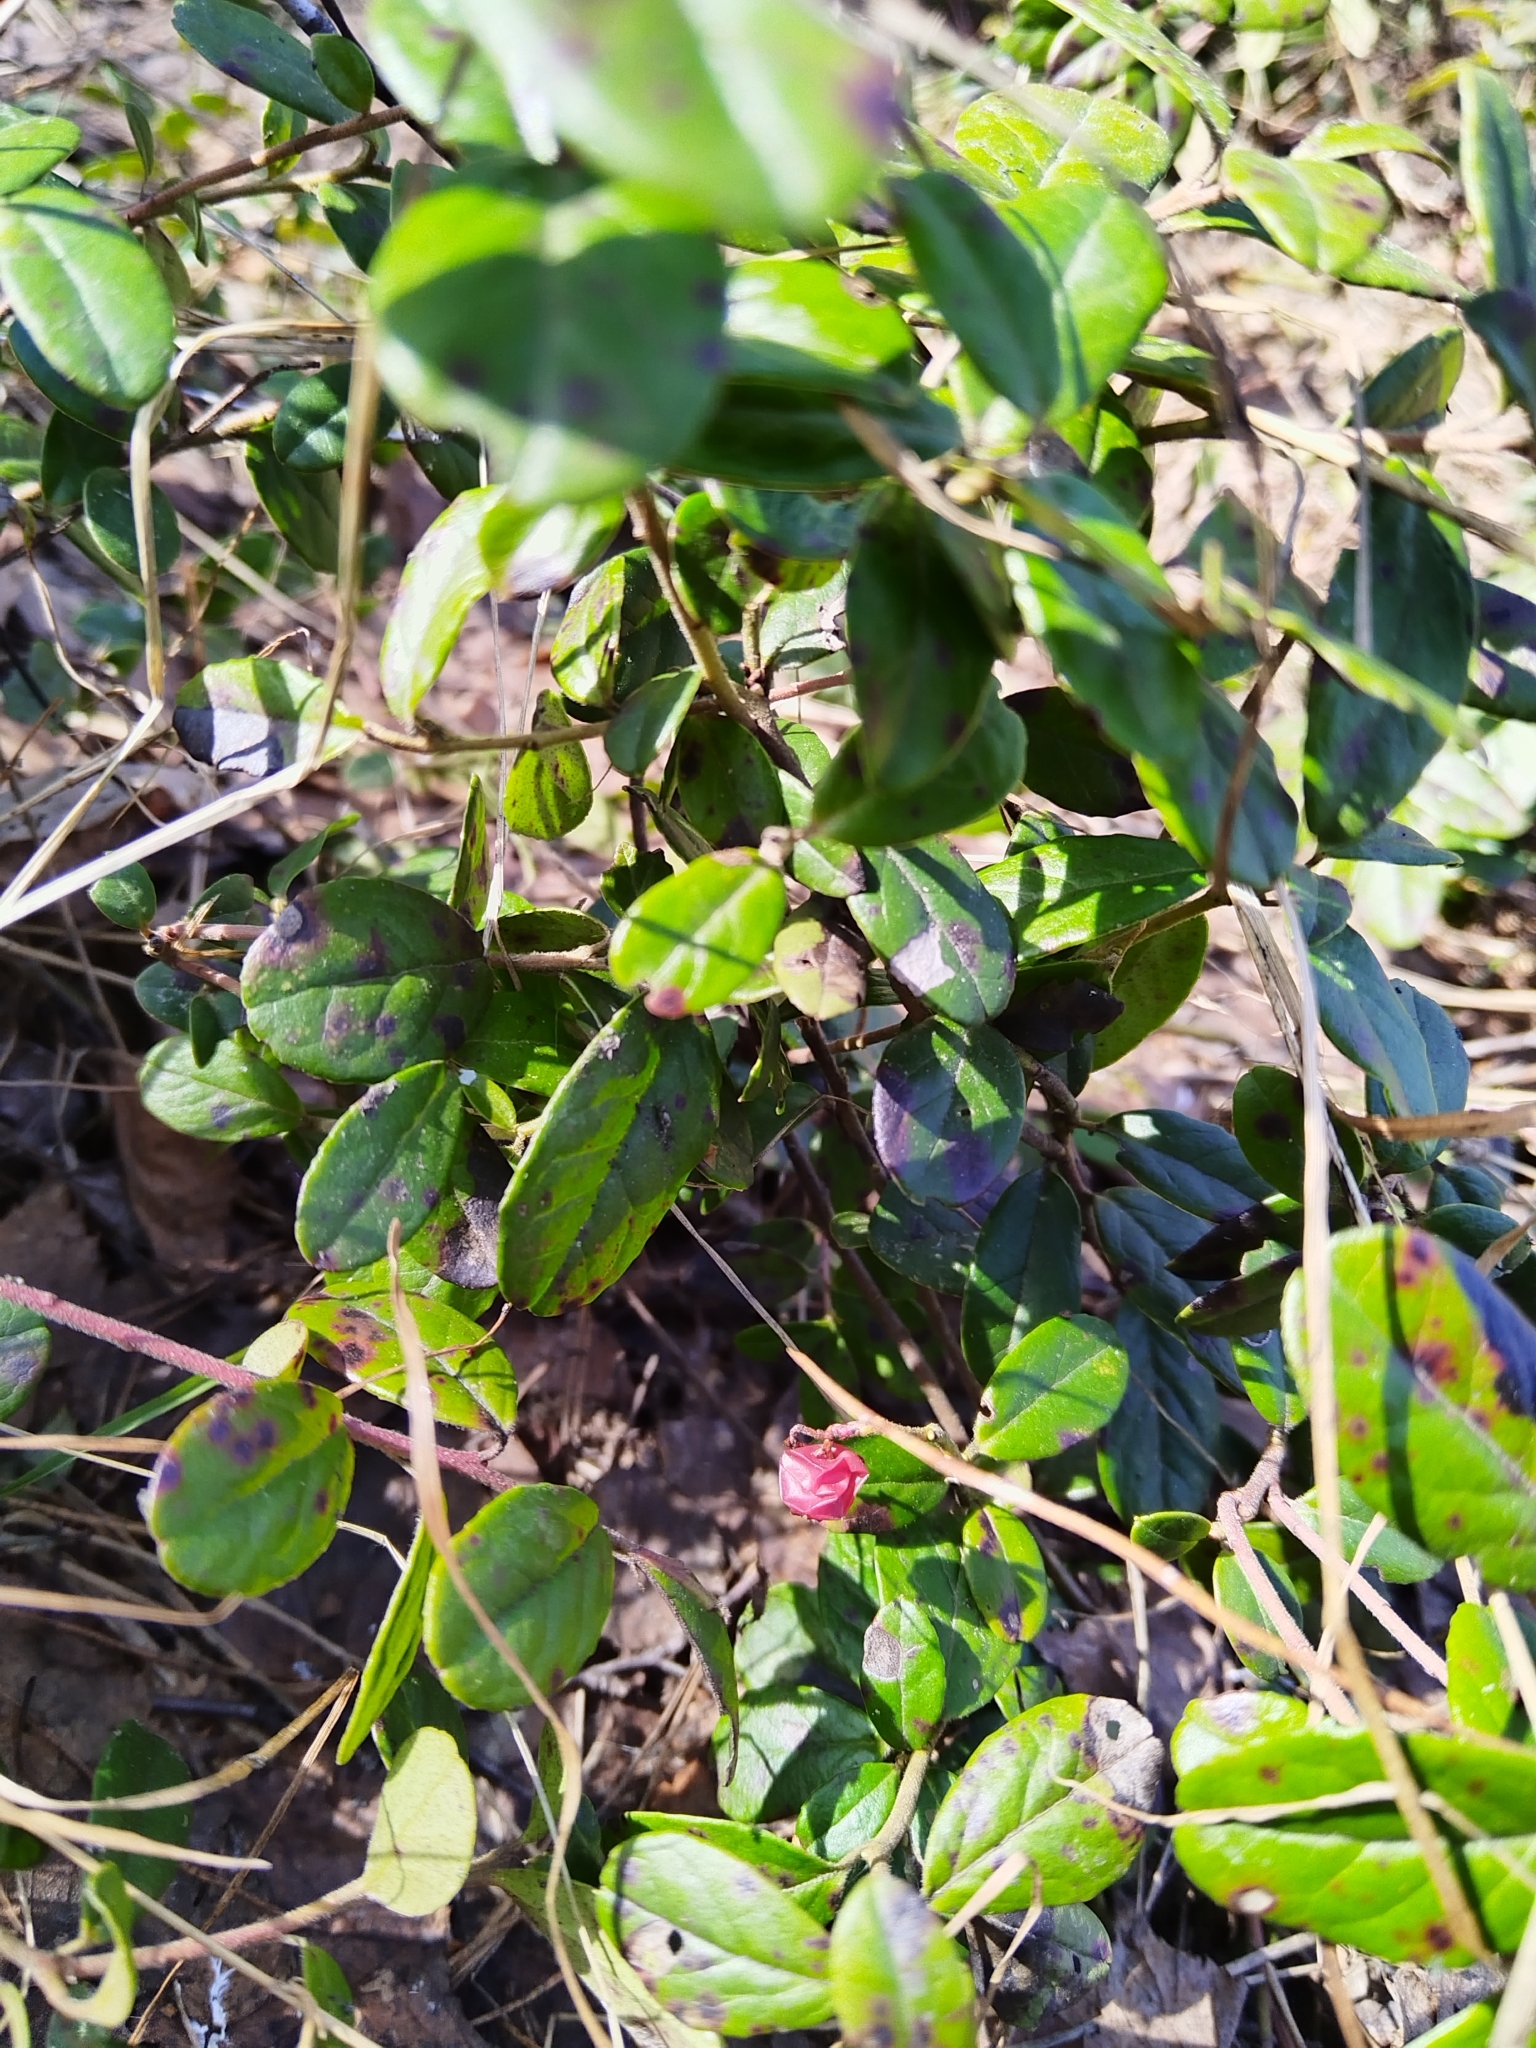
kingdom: Plantae
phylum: Tracheophyta
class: Magnoliopsida
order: Ericales
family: Ericaceae
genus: Vaccinium
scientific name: Vaccinium vitis-idaea
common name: Cowberry
